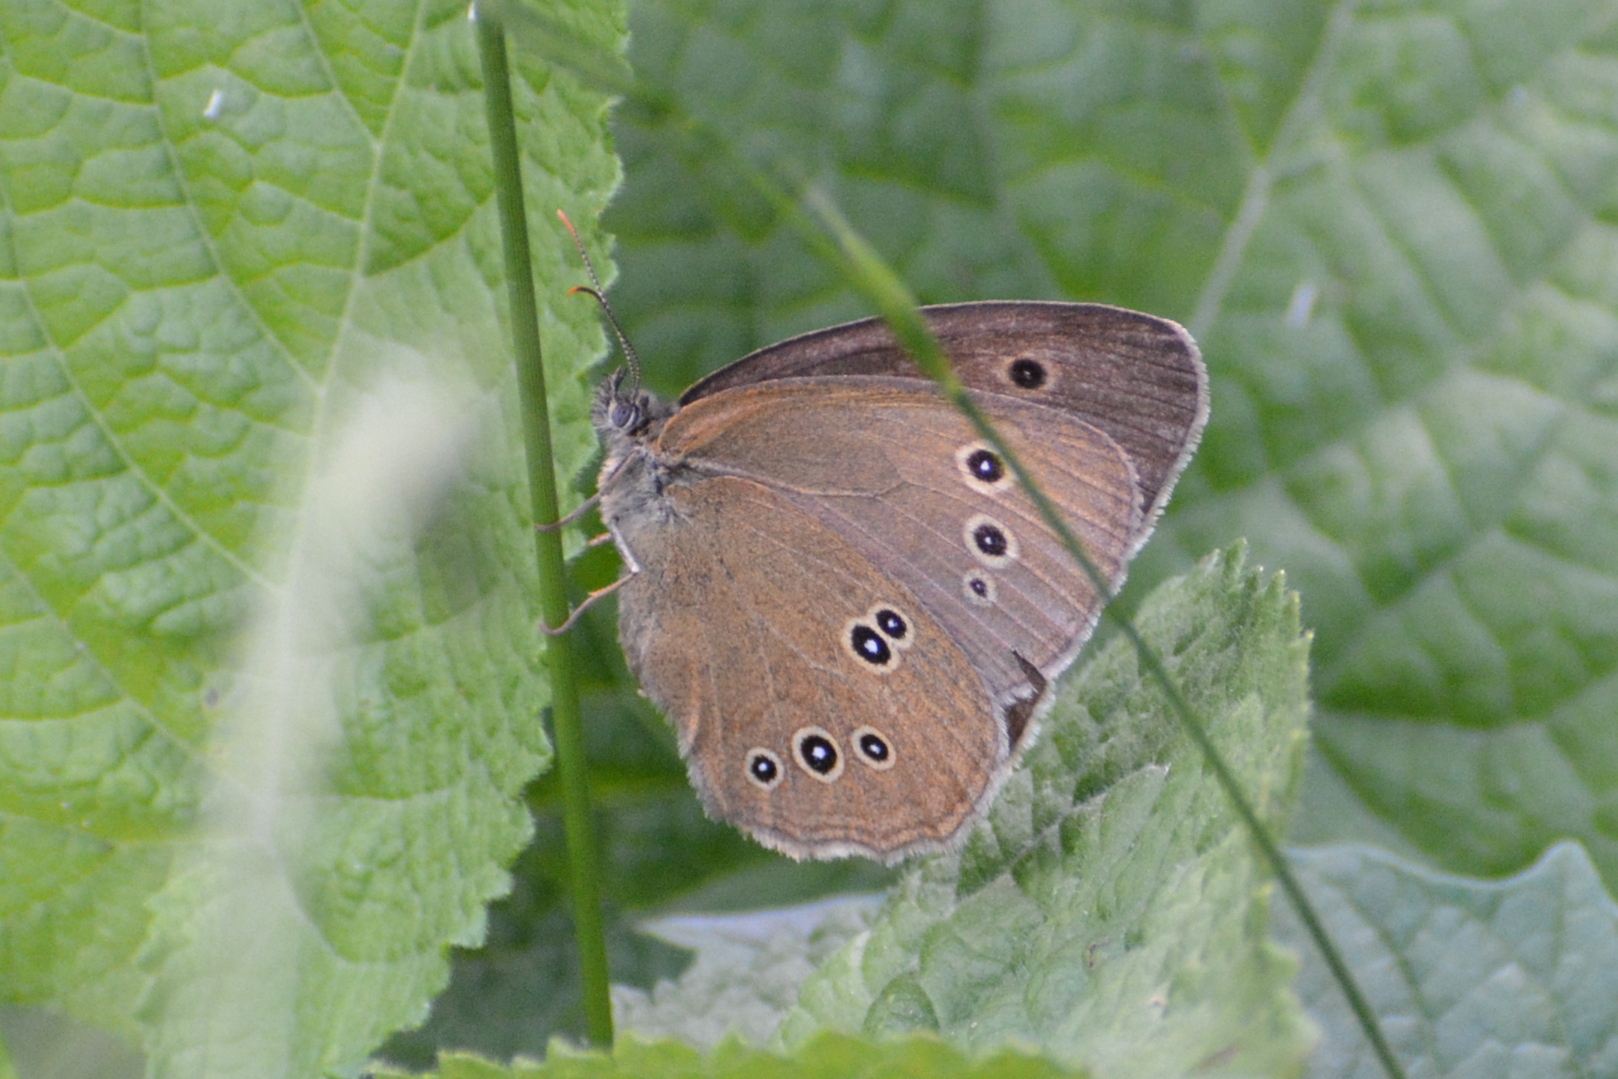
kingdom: Animalia
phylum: Arthropoda
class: Insecta
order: Lepidoptera
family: Nymphalidae
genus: Aphantopus
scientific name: Aphantopus hyperantus
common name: Ringlet
